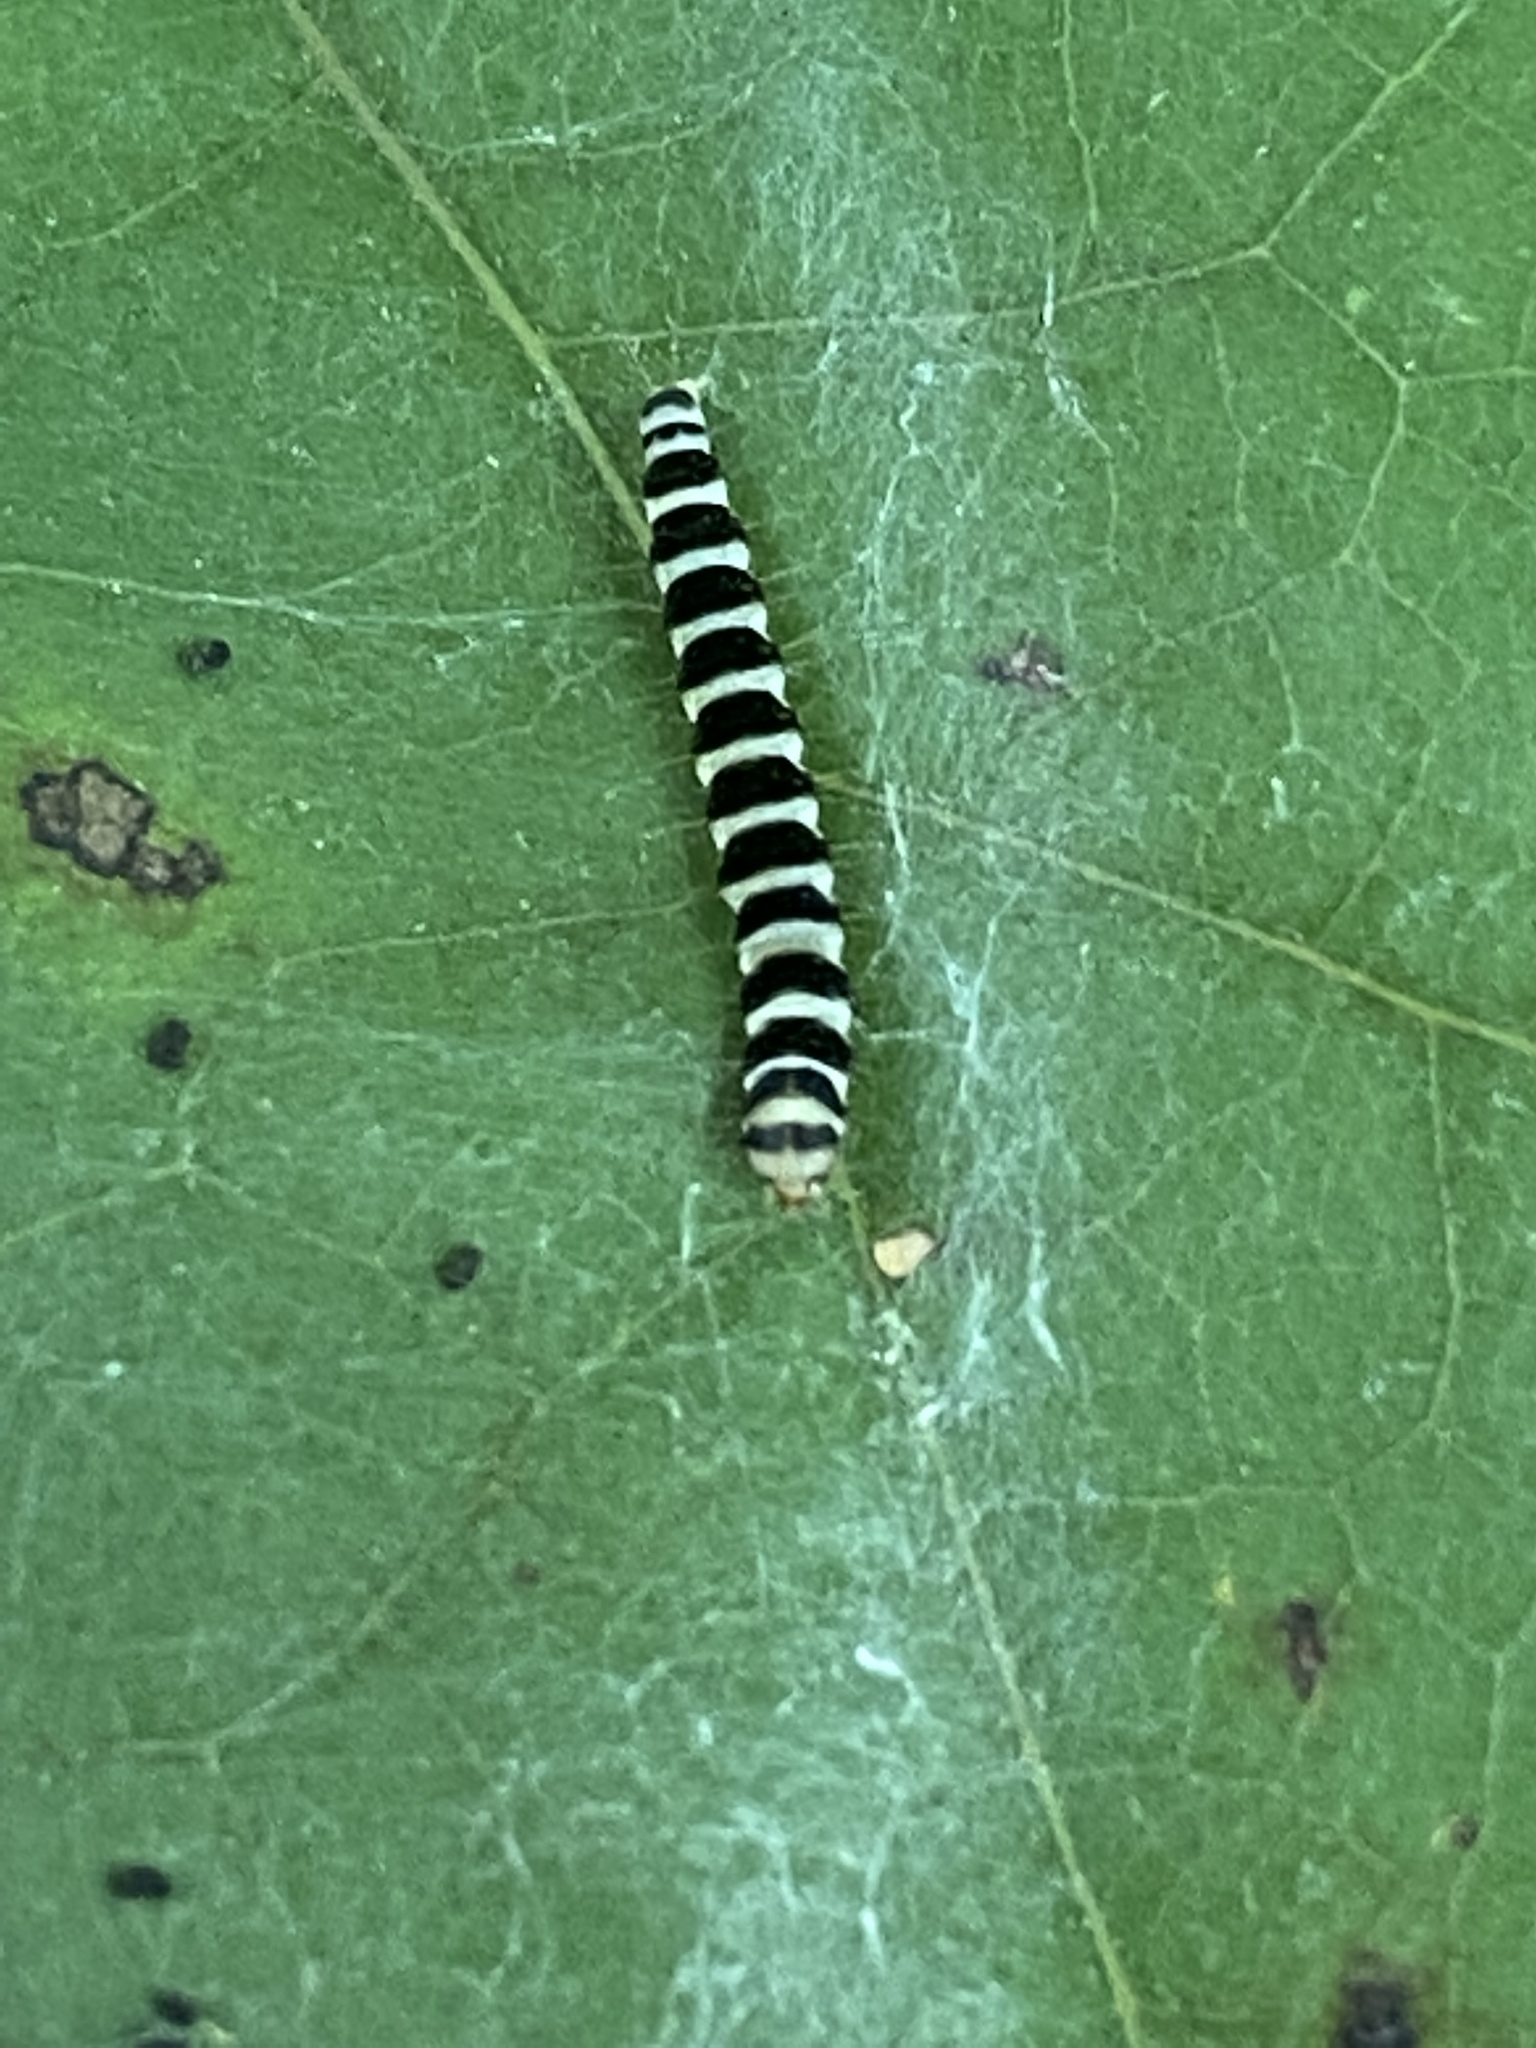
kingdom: Animalia
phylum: Arthropoda
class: Insecta
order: Lepidoptera
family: Gelechiidae
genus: Fascista
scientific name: Fascista cercerisella
